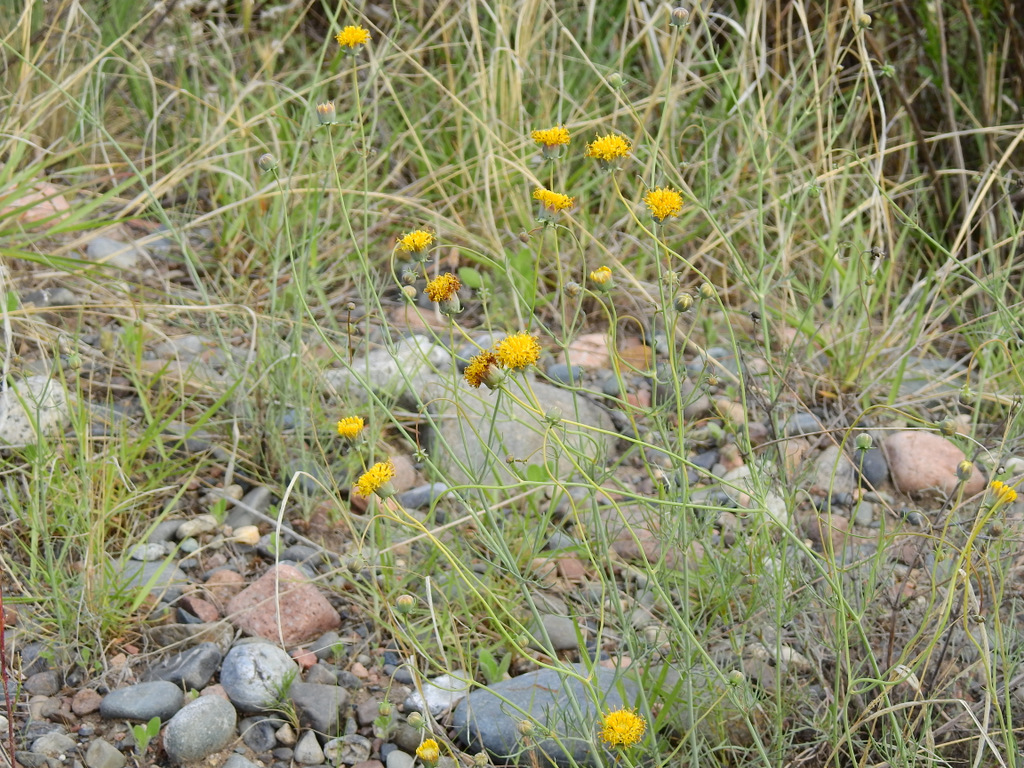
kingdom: Plantae
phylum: Tracheophyta
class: Magnoliopsida
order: Asterales
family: Asteraceae
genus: Thelesperma
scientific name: Thelesperma megapotamicum
